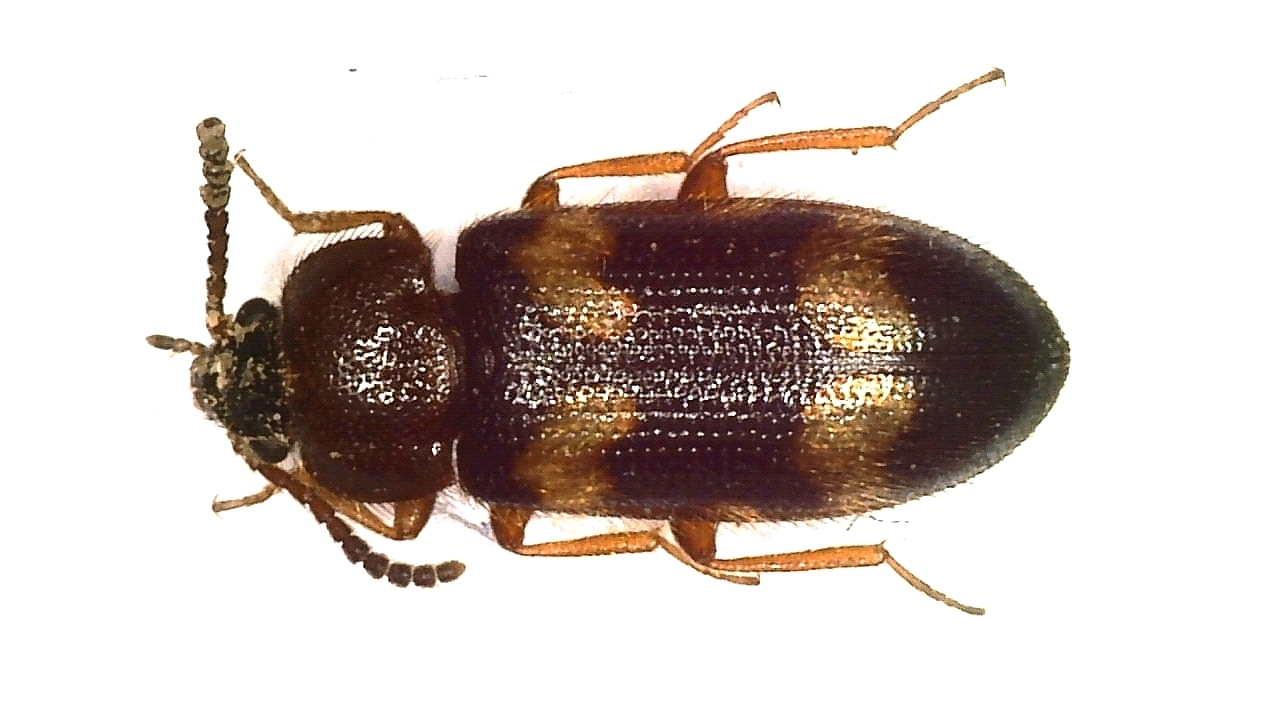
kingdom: Animalia
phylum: Arthropoda
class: Insecta
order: Coleoptera
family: Mycetophagidae
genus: Mycetophagus
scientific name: Mycetophagus fulvicollis
